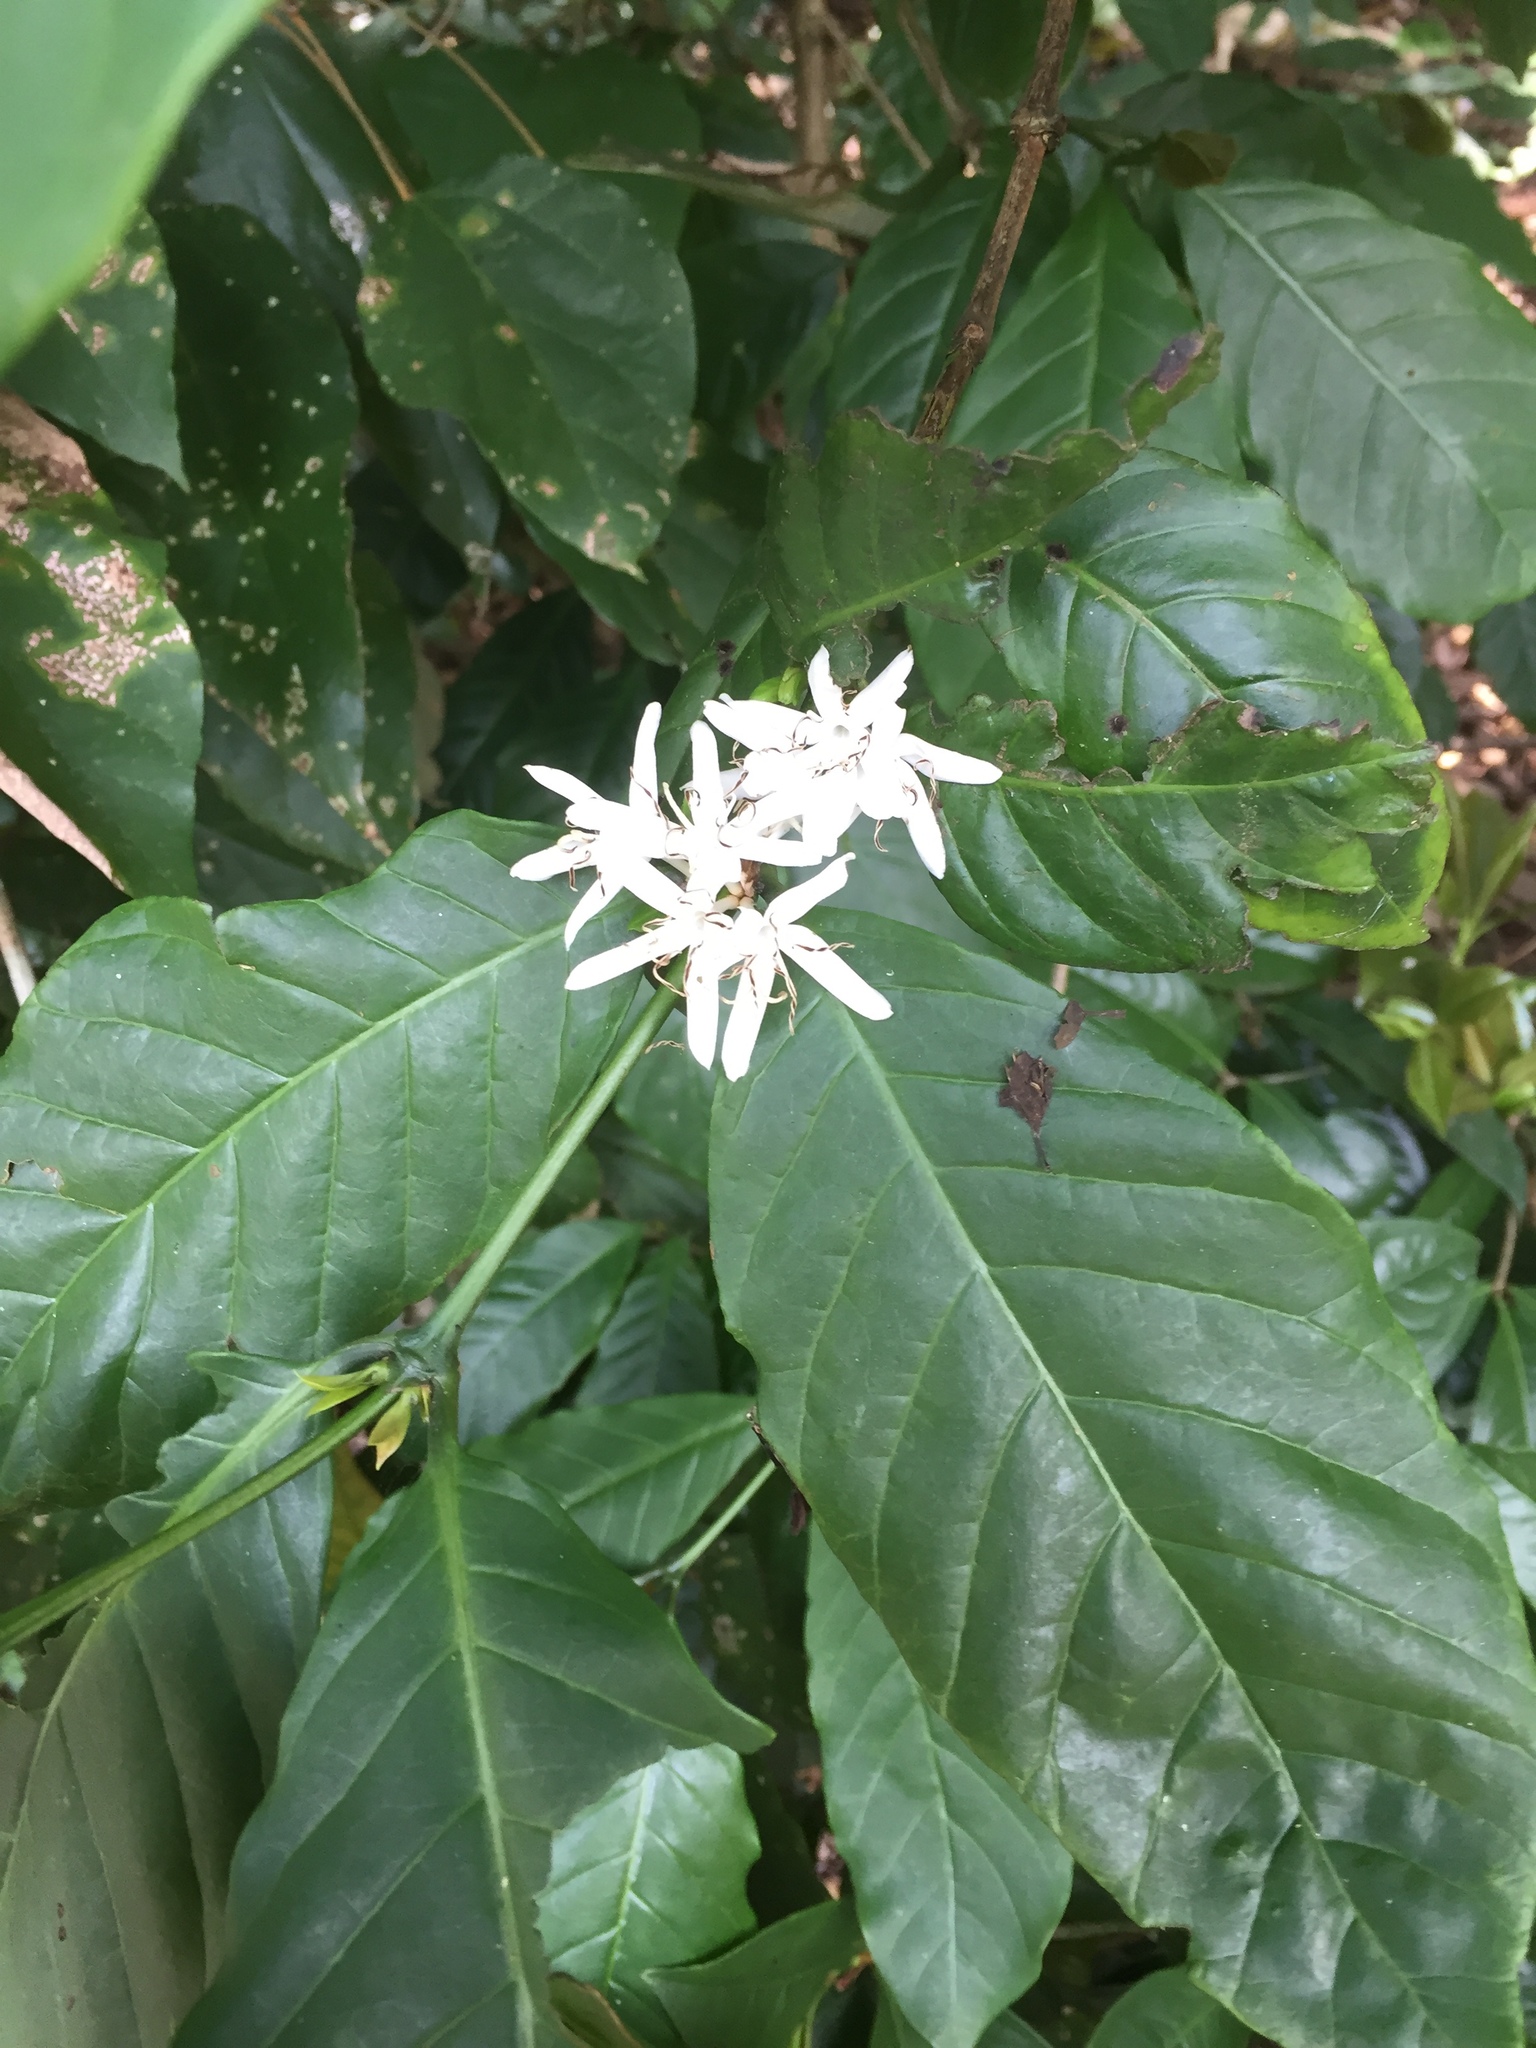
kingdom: Plantae
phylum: Tracheophyta
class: Magnoliopsida
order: Gentianales
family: Rubiaceae
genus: Coffea
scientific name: Coffea arabica
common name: Coffee
